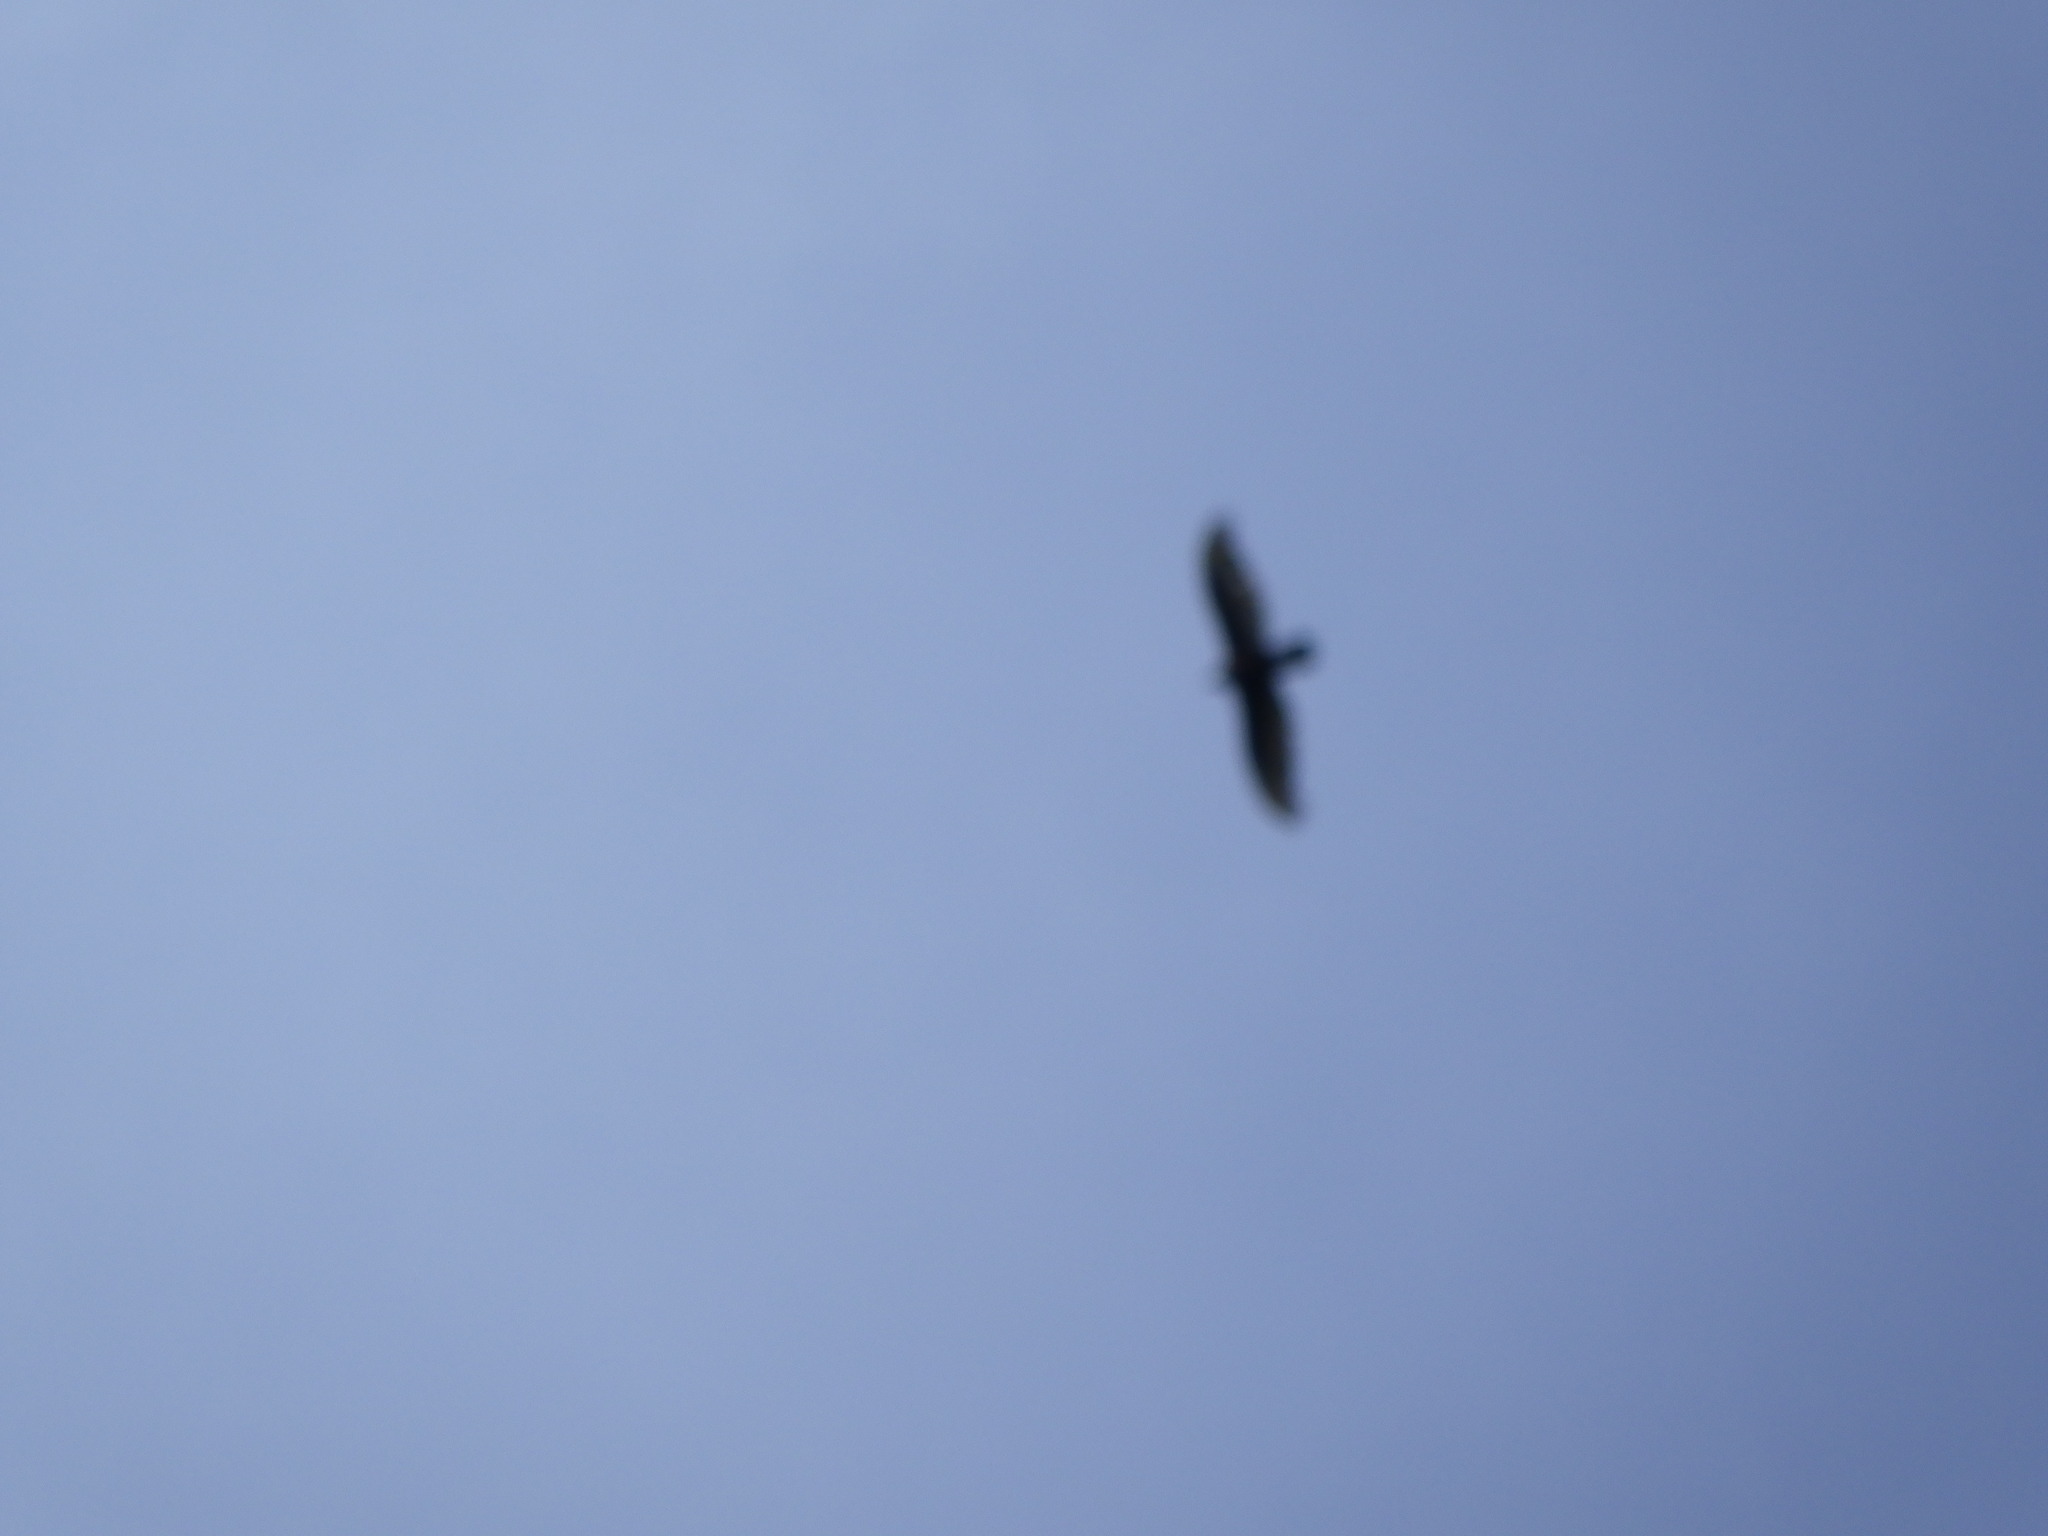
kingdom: Animalia
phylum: Chordata
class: Aves
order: Accipitriformes
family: Cathartidae
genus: Cathartes
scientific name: Cathartes aura
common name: Turkey vulture
